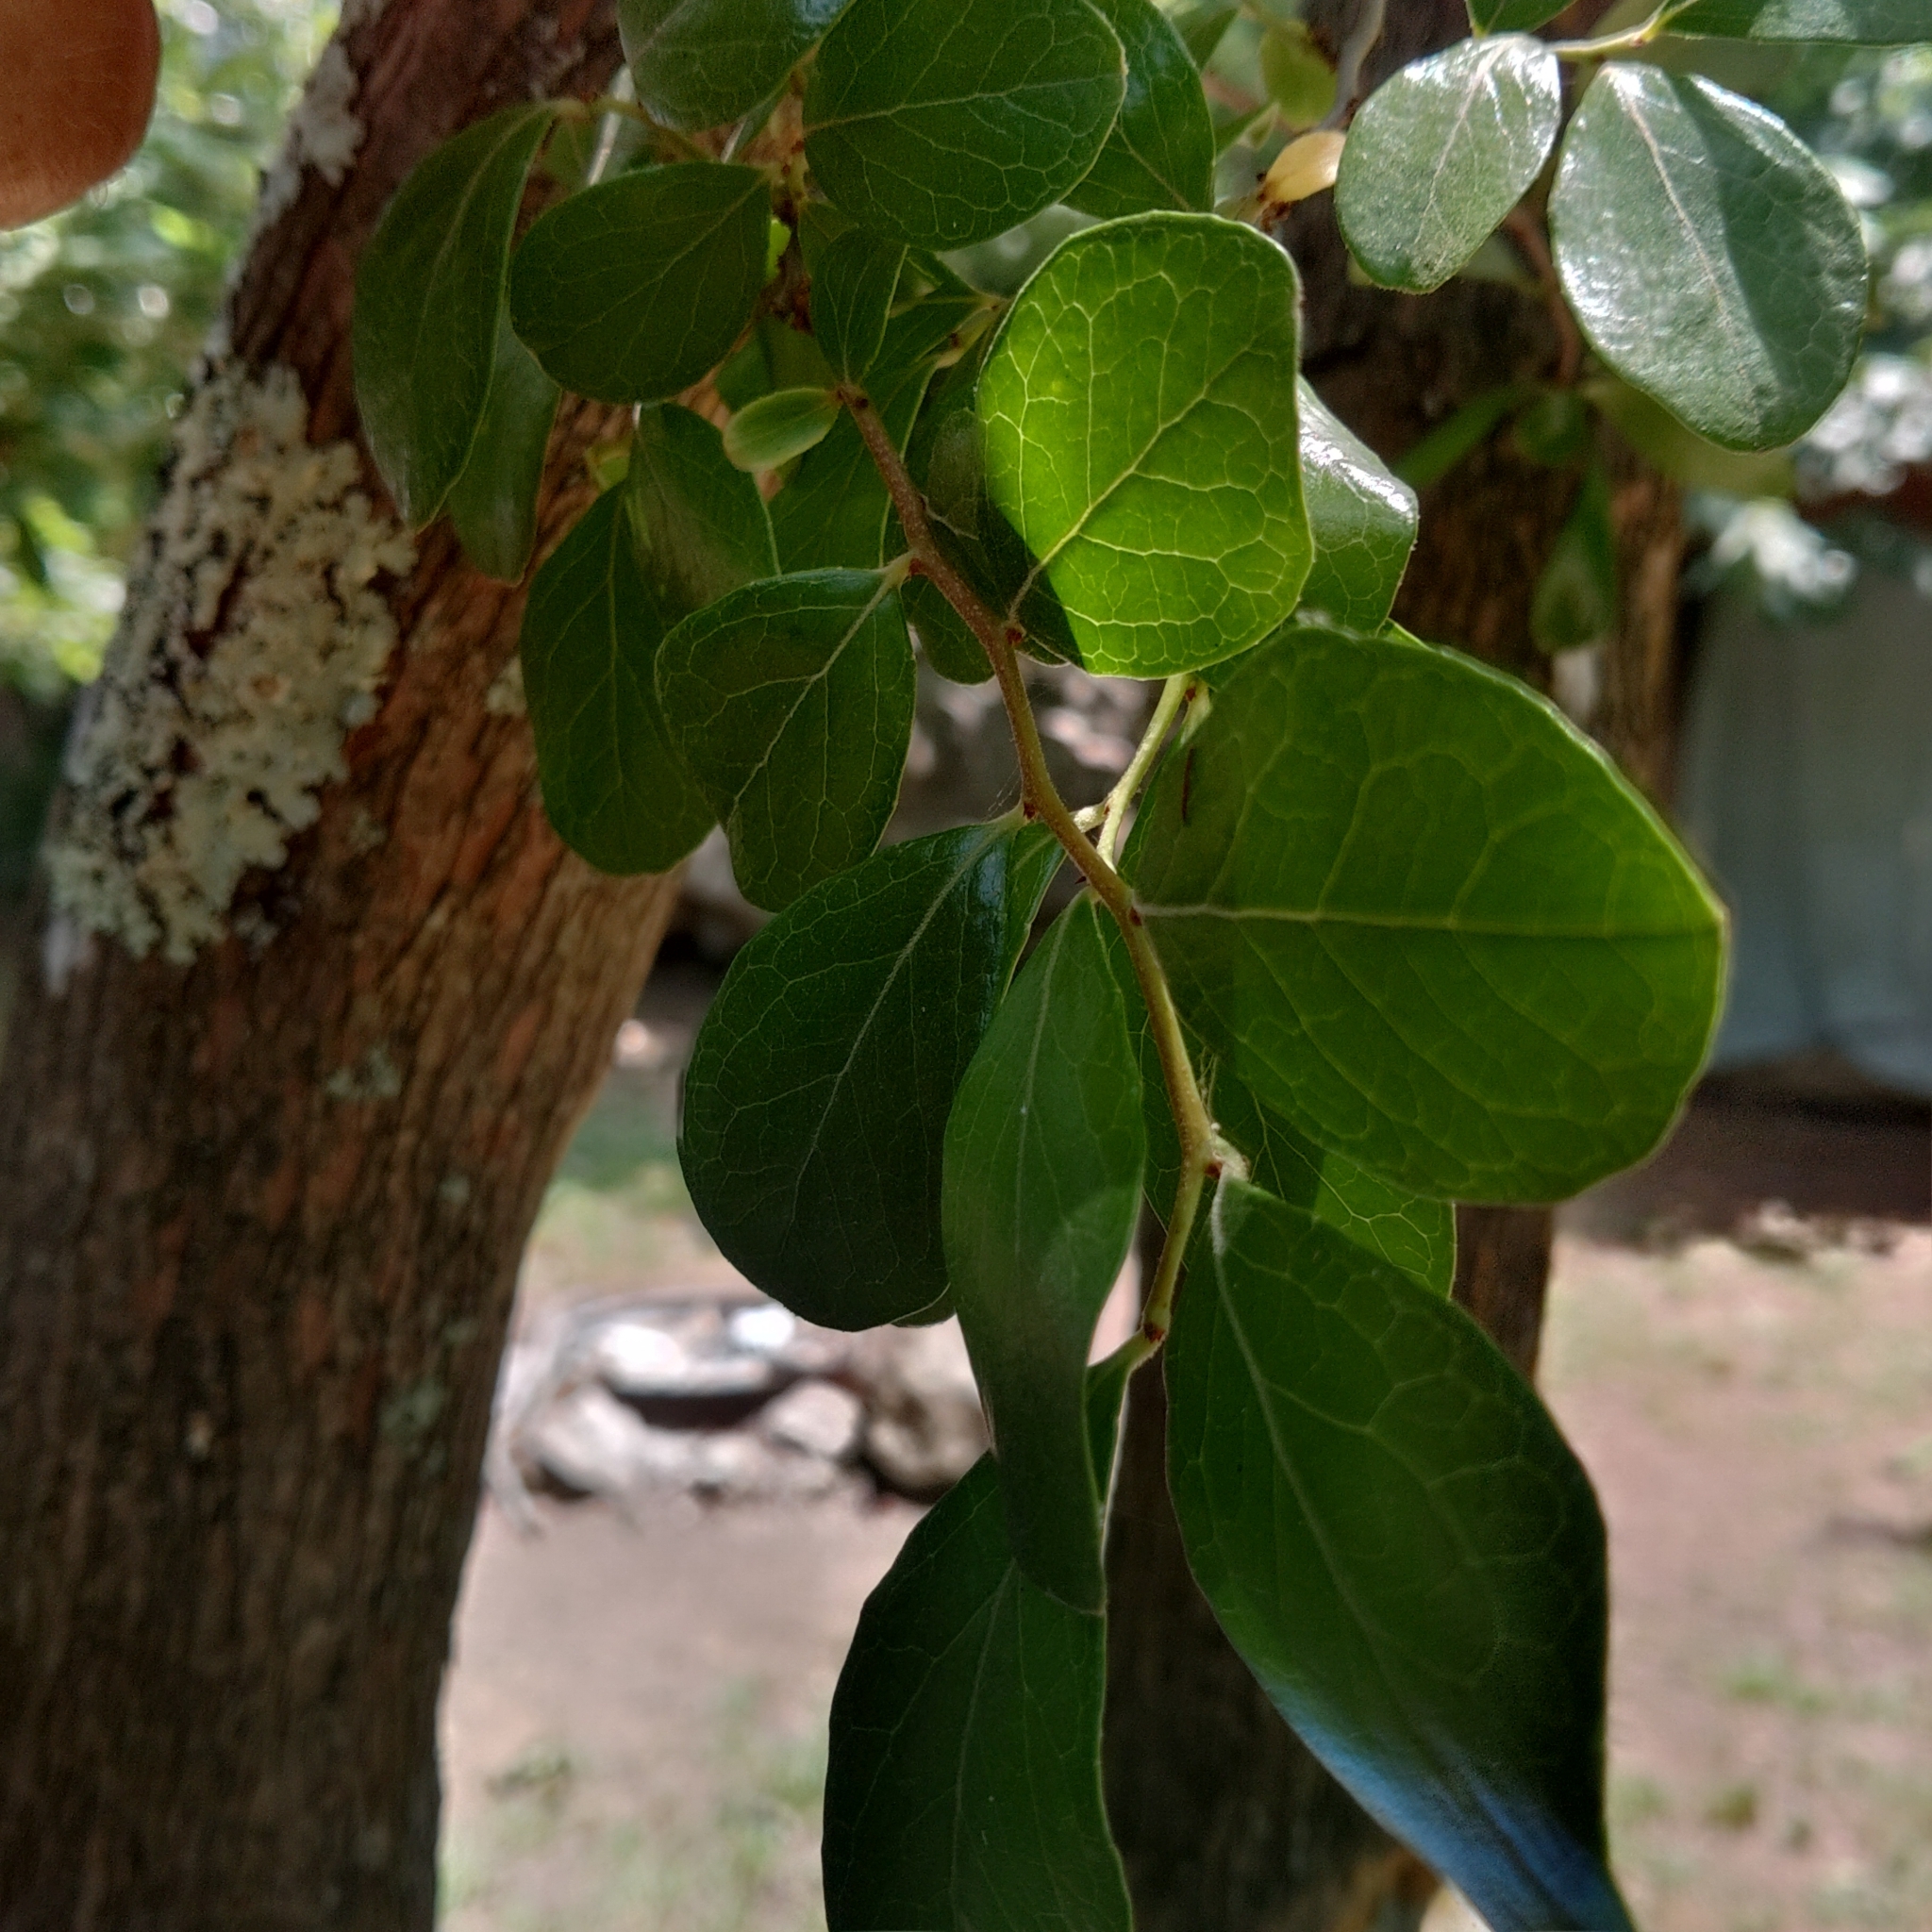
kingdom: Plantae
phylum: Tracheophyta
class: Magnoliopsida
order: Ericales
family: Ericaceae
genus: Vaccinium
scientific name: Vaccinium arboreum
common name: Farkleberry
